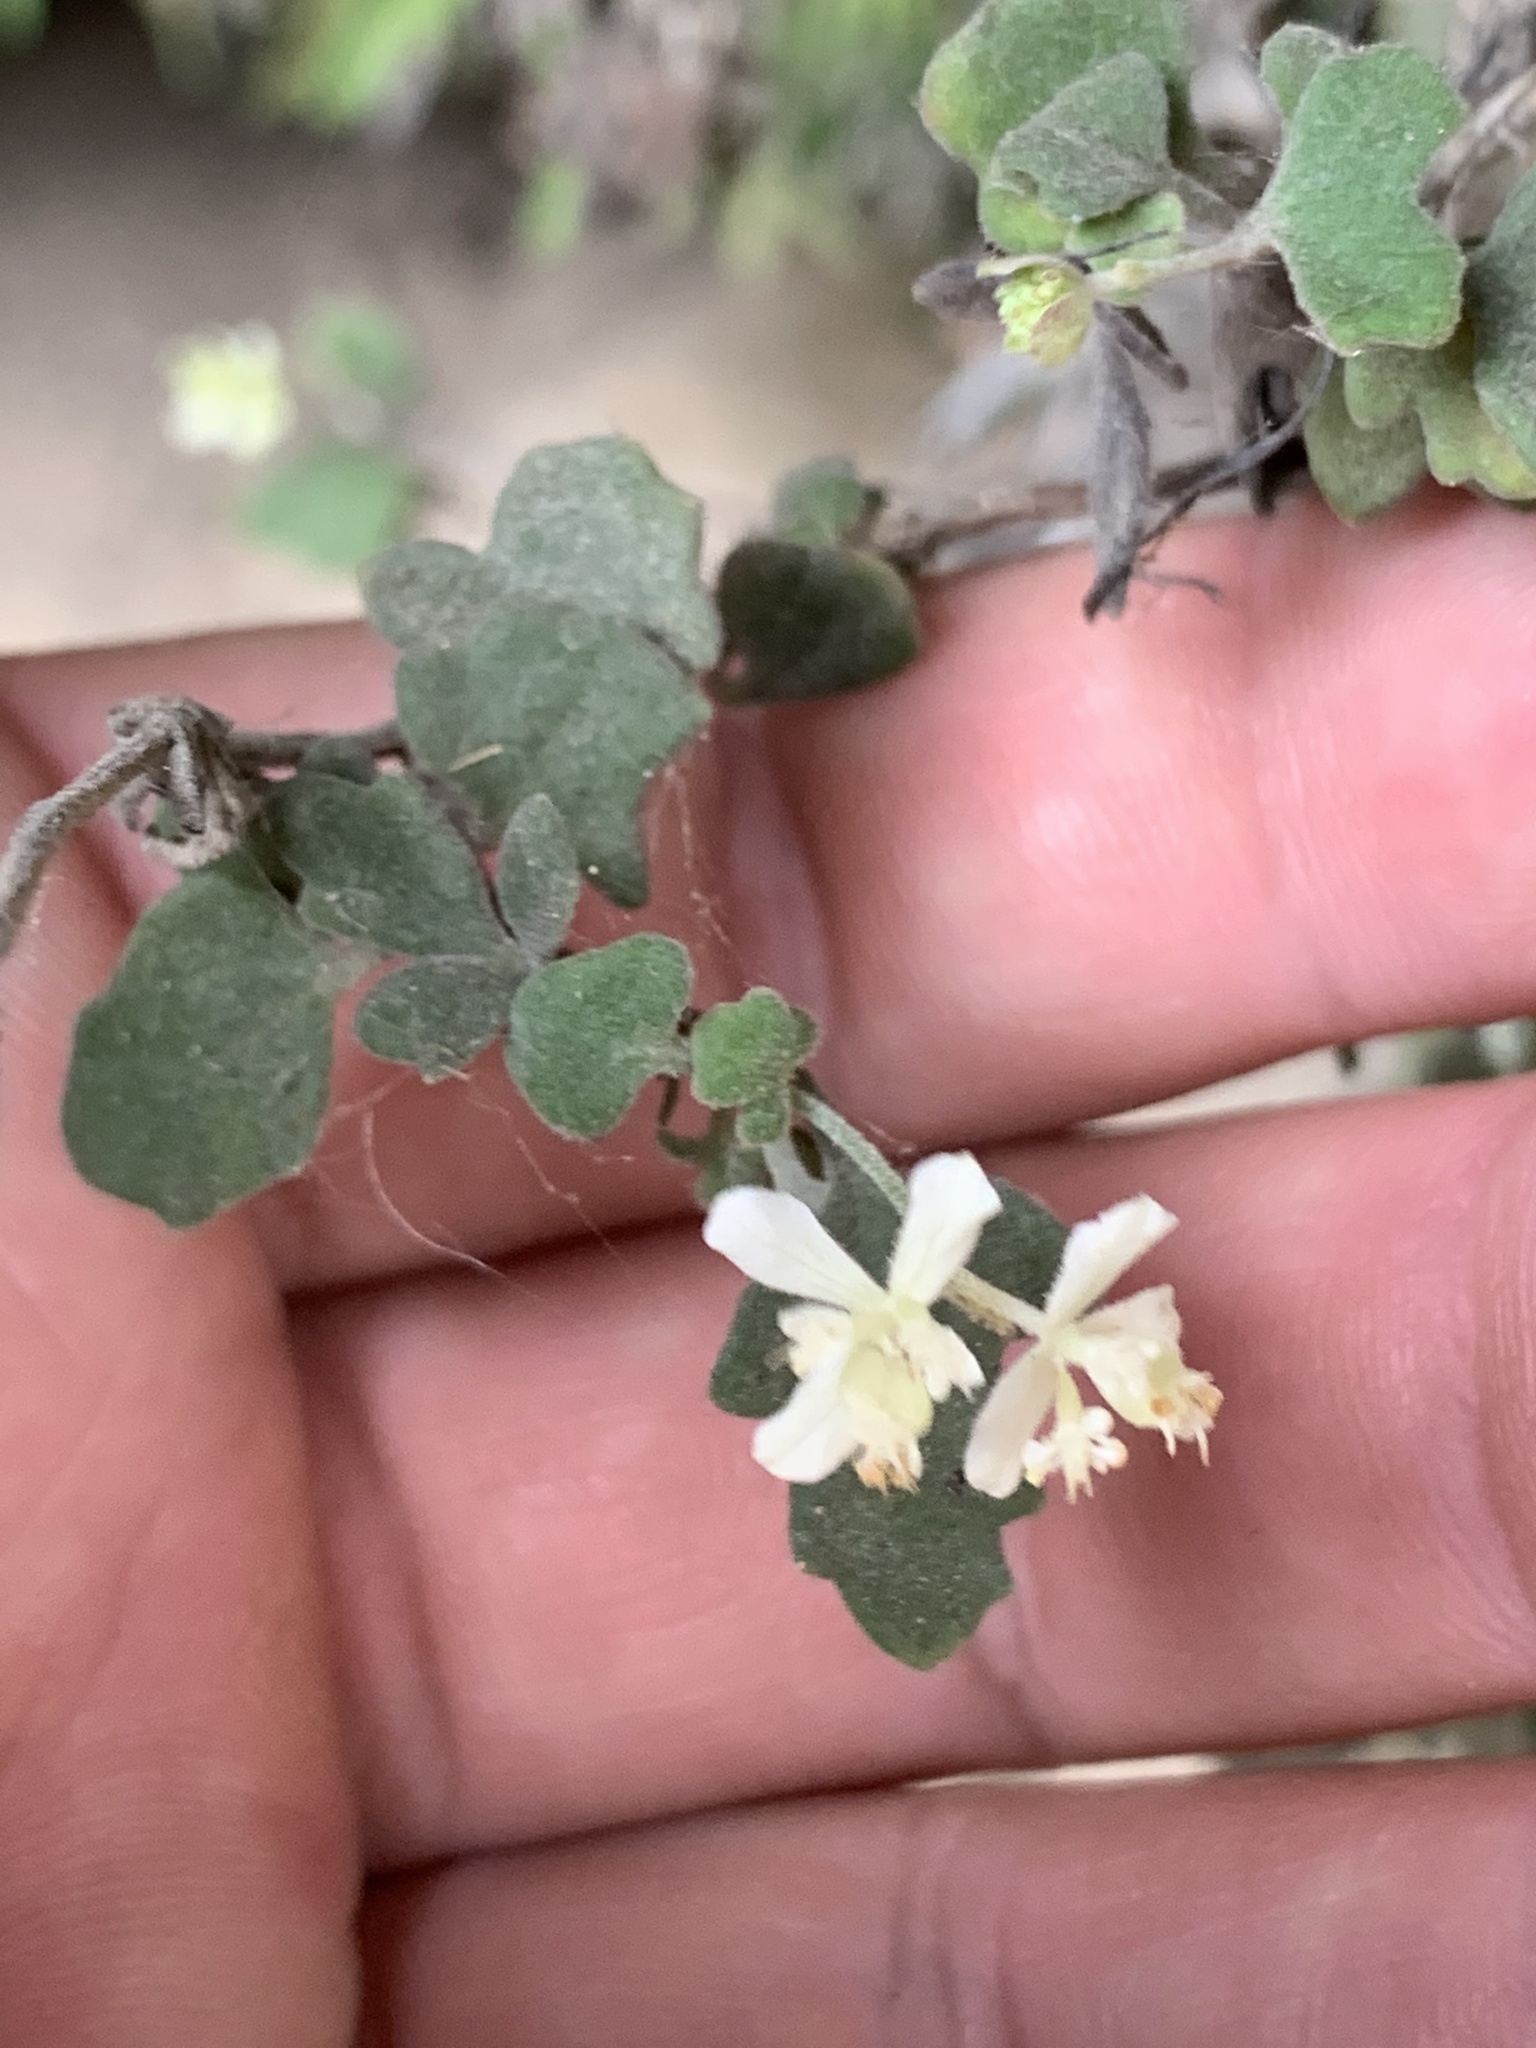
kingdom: Plantae
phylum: Tracheophyta
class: Magnoliopsida
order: Apiales
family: Apiaceae
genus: Xanthosia
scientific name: Xanthosia scopulicola
